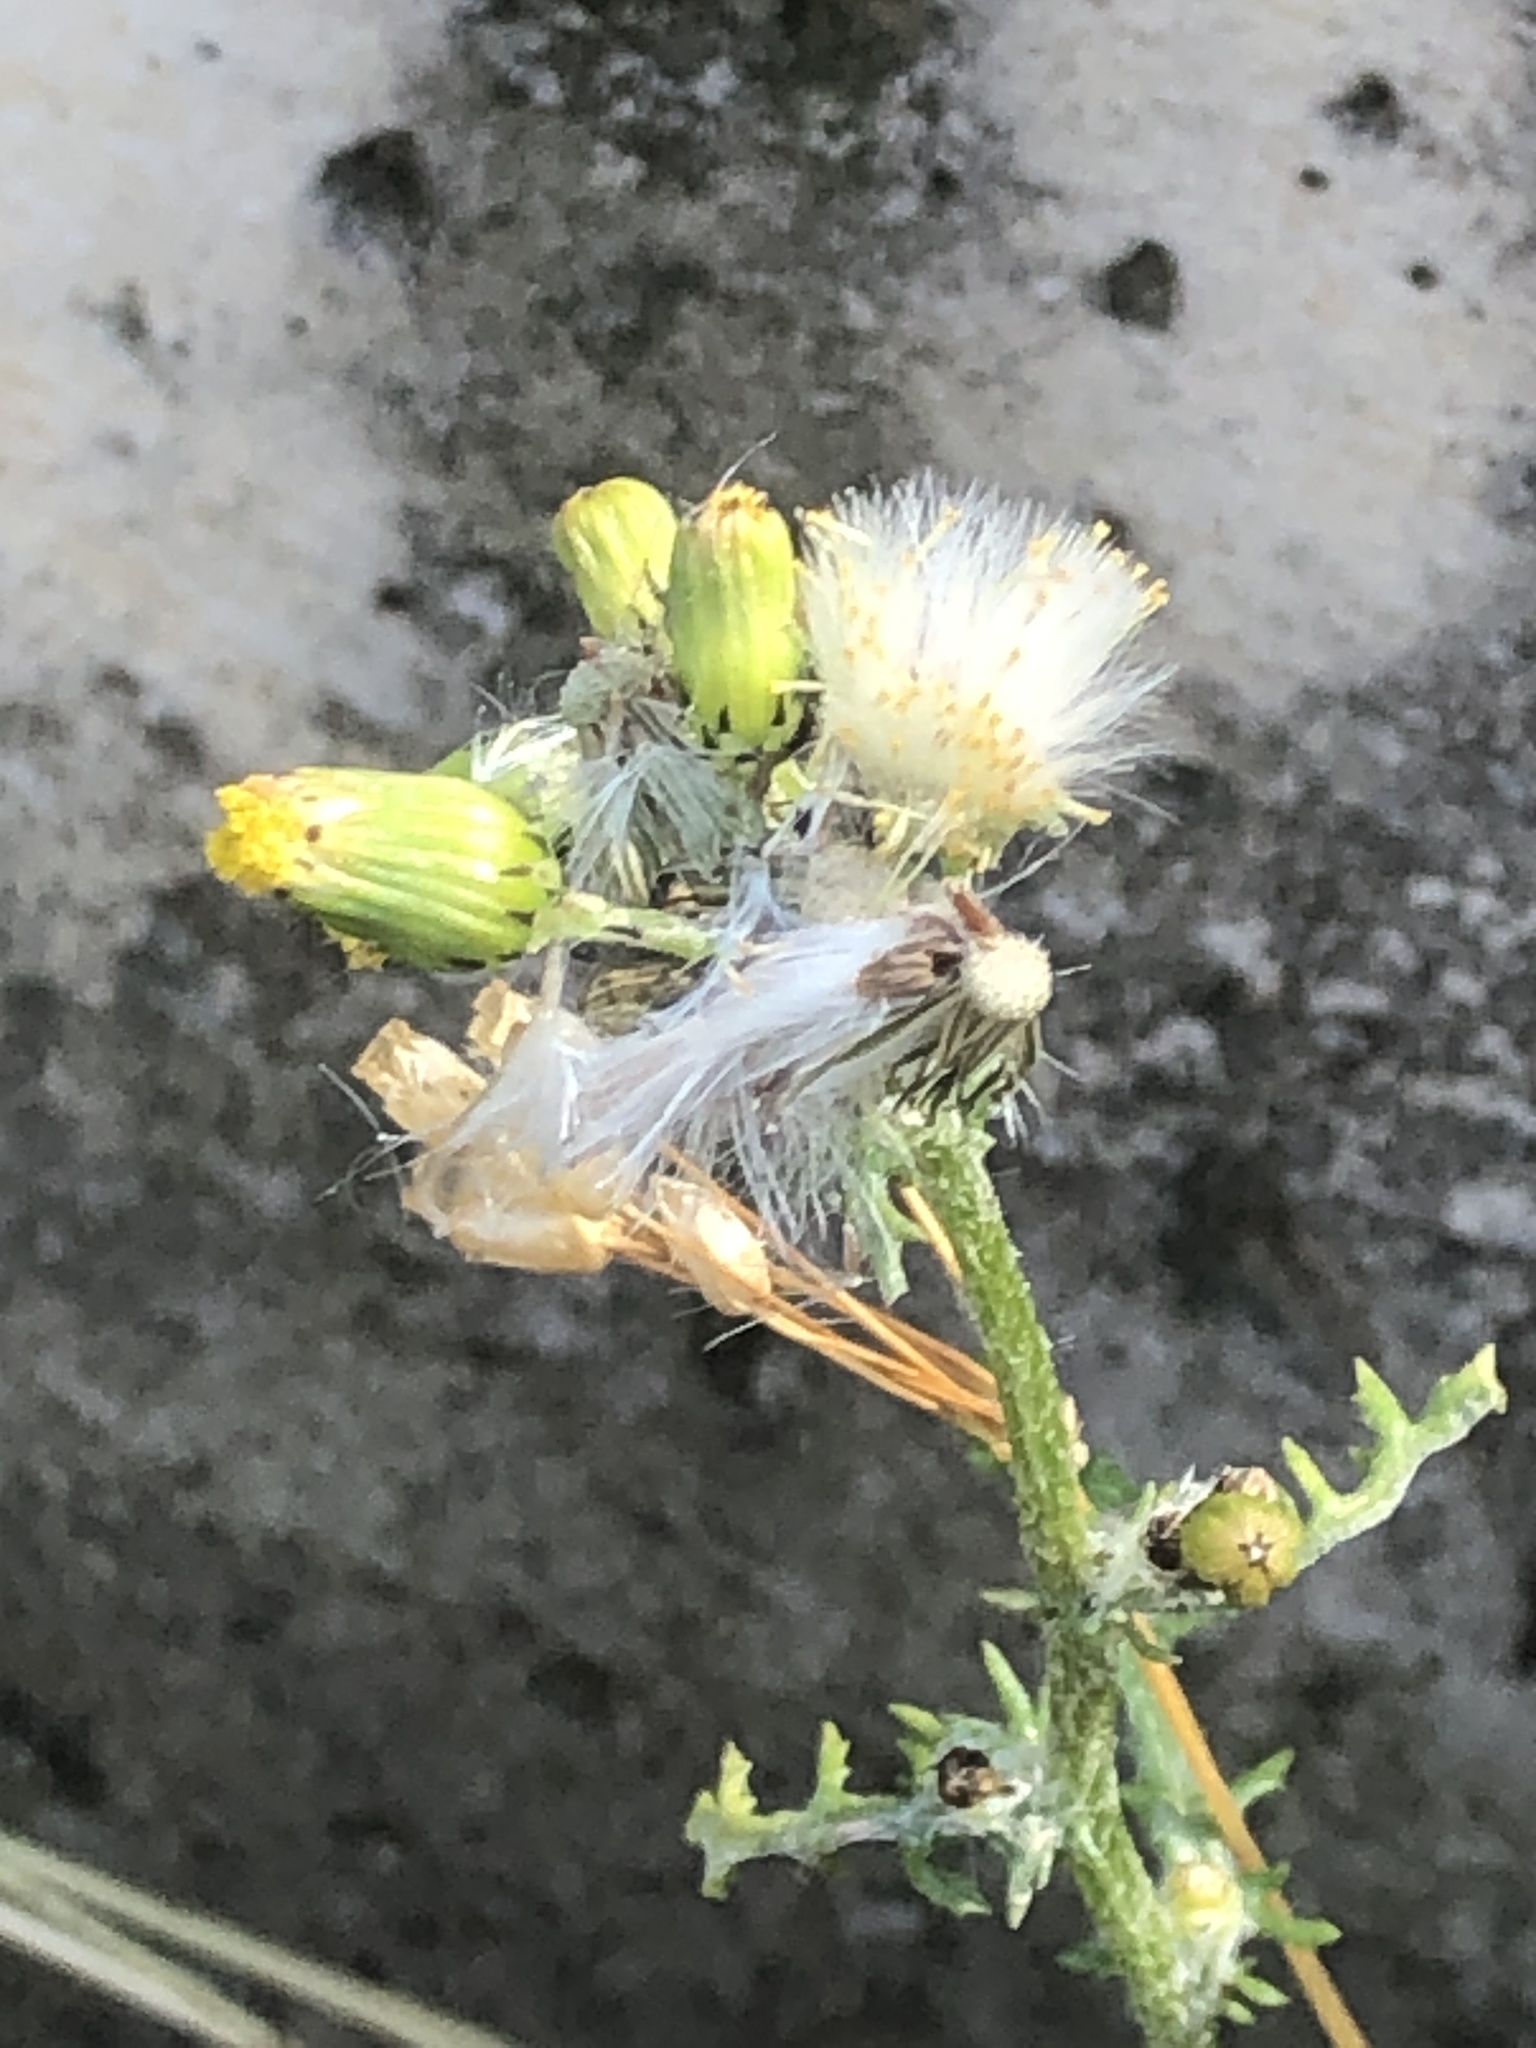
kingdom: Plantae
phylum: Tracheophyta
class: Magnoliopsida
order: Asterales
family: Asteraceae
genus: Senecio
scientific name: Senecio vulgaris
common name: Old-man-in-the-spring
